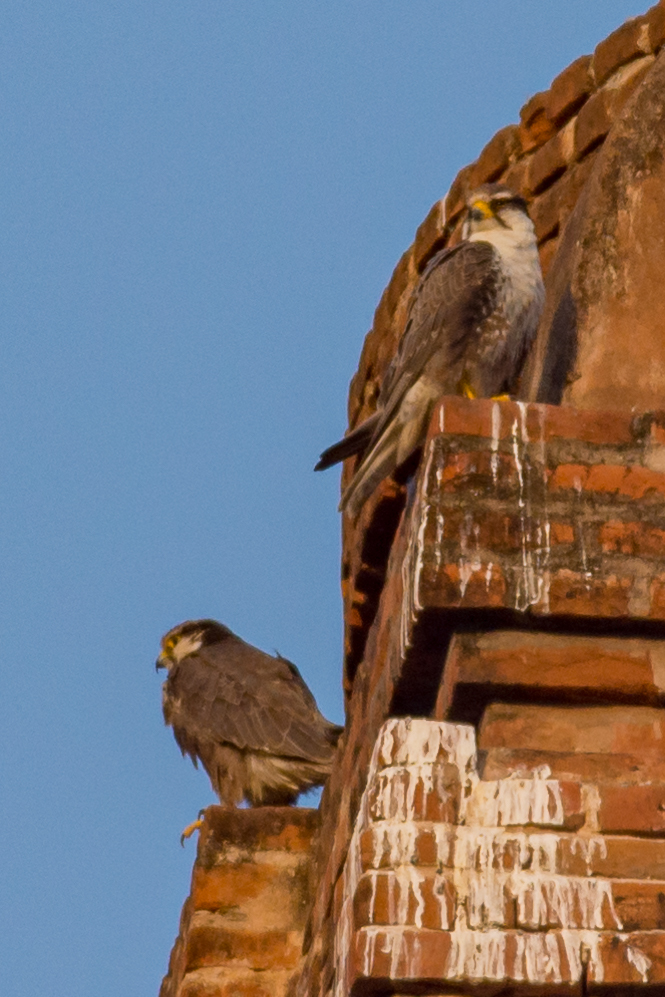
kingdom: Animalia
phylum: Chordata
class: Aves
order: Falconiformes
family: Falconidae
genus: Falco
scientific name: Falco jugger
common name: Laggar falcon
